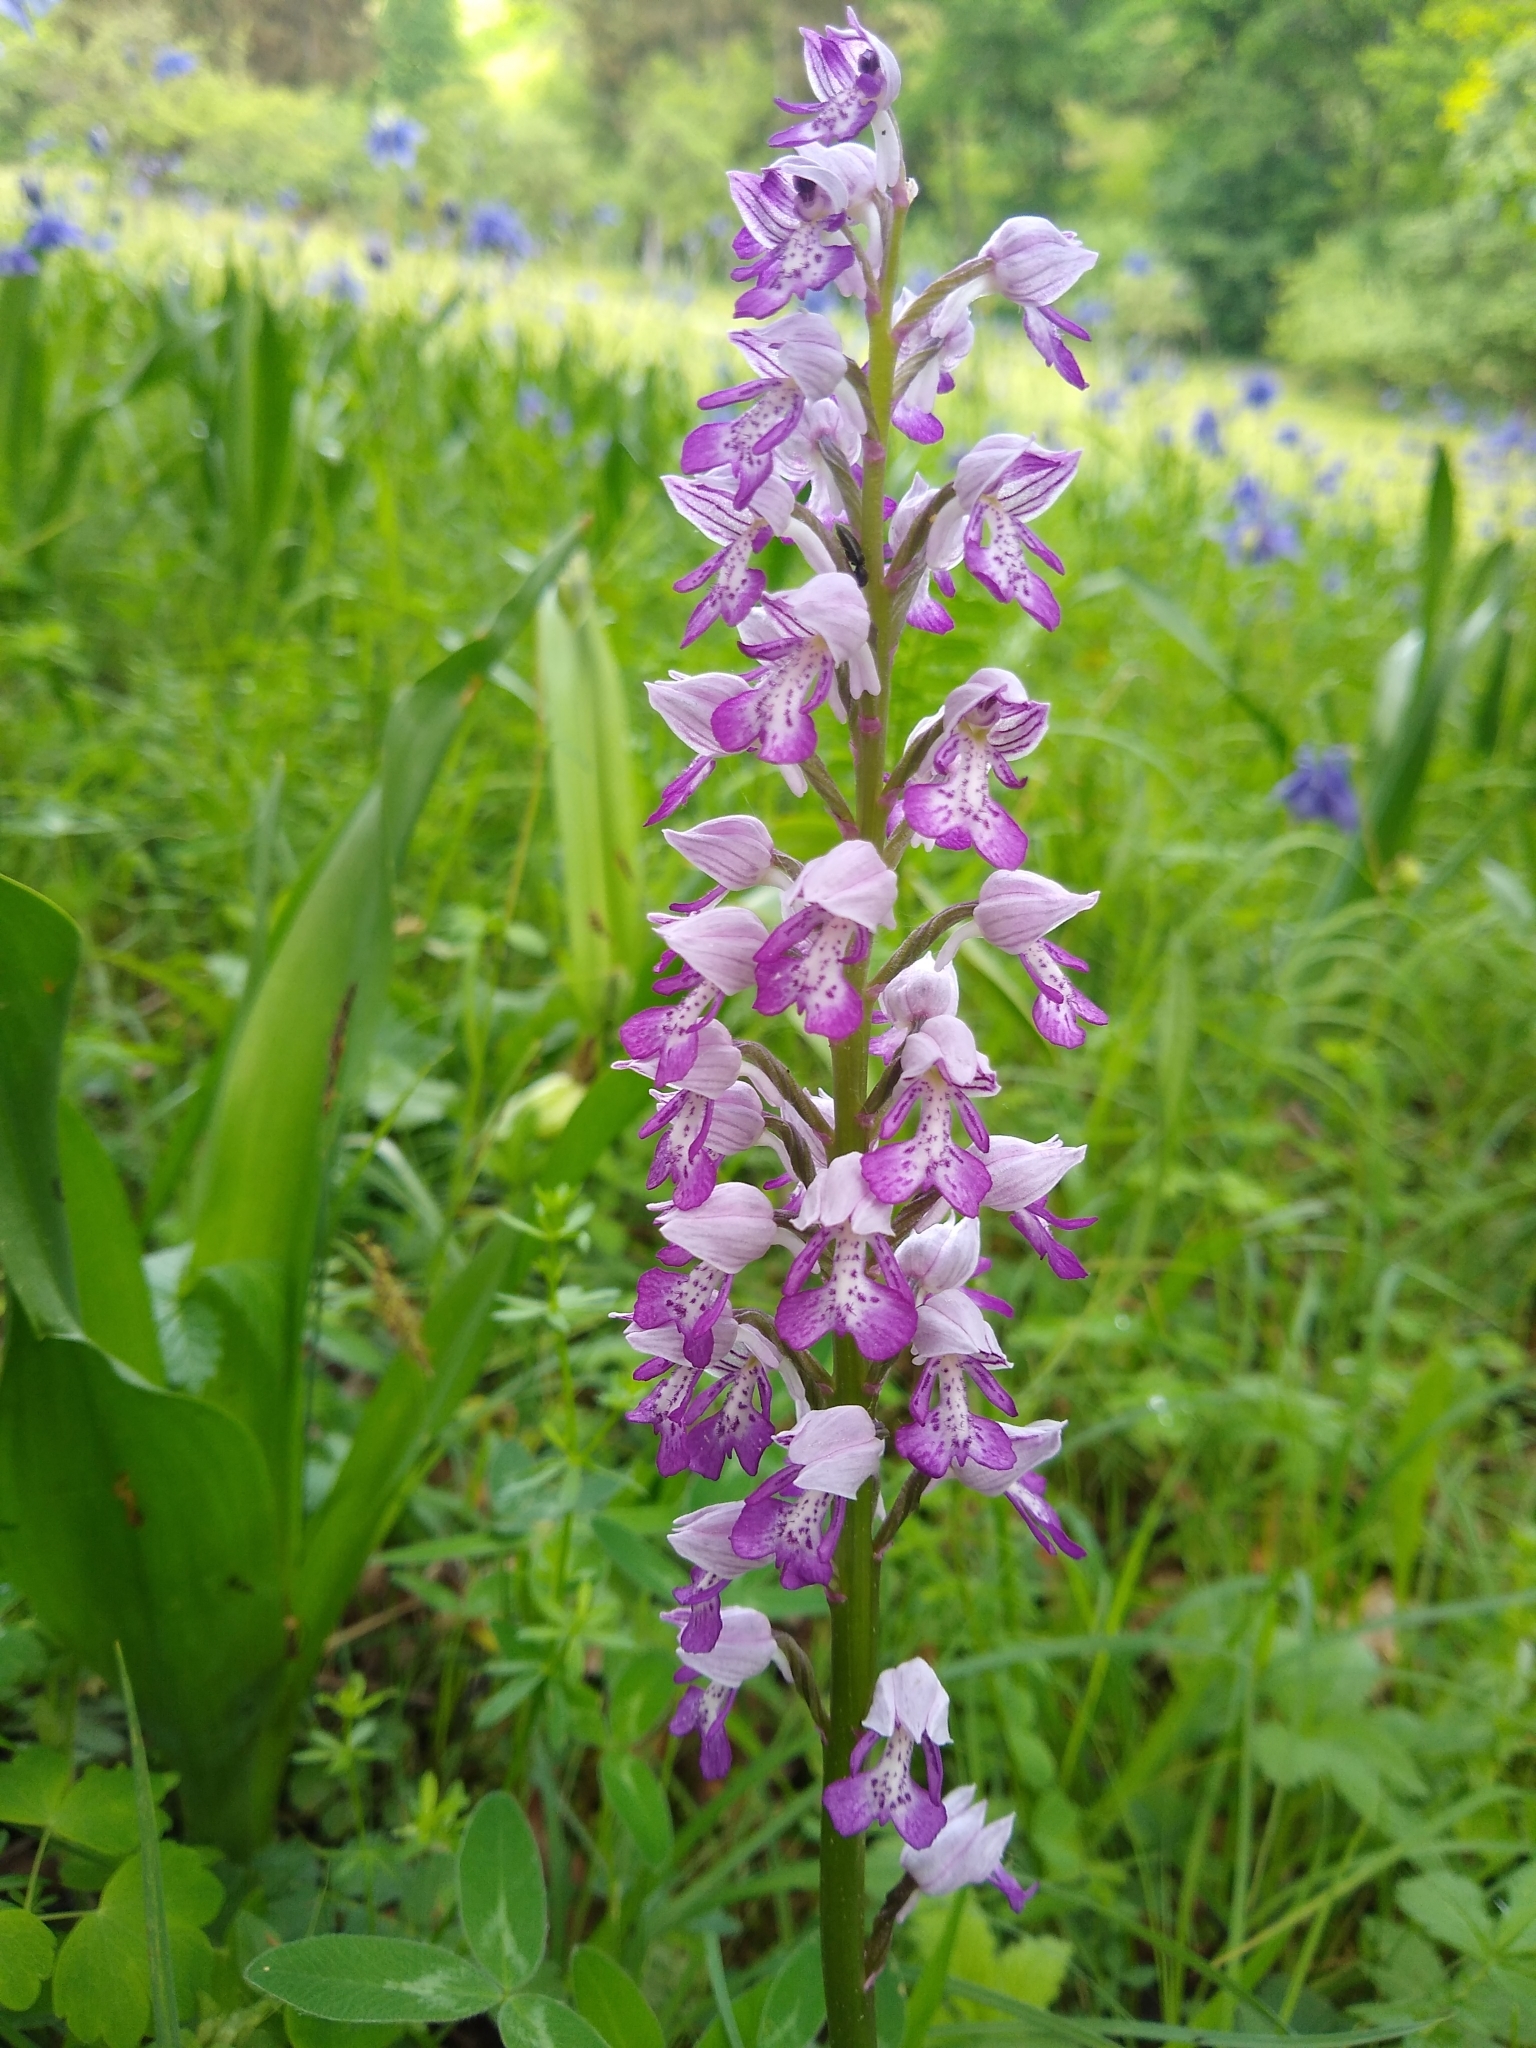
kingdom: Plantae
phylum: Tracheophyta
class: Liliopsida
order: Asparagales
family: Orchidaceae
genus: Orchis
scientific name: Orchis militaris
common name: Military orchid
